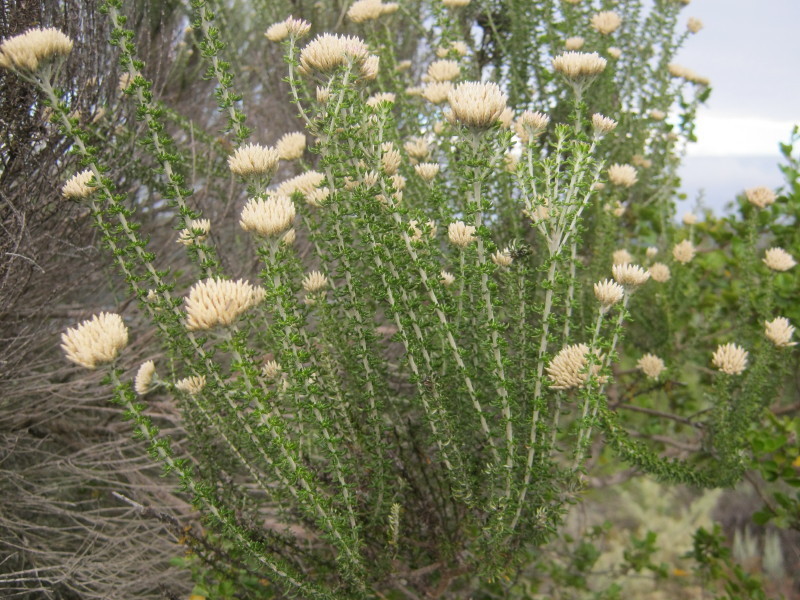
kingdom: Plantae
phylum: Tracheophyta
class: Magnoliopsida
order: Asterales
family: Asteraceae
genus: Metalasia
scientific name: Metalasia muricata
